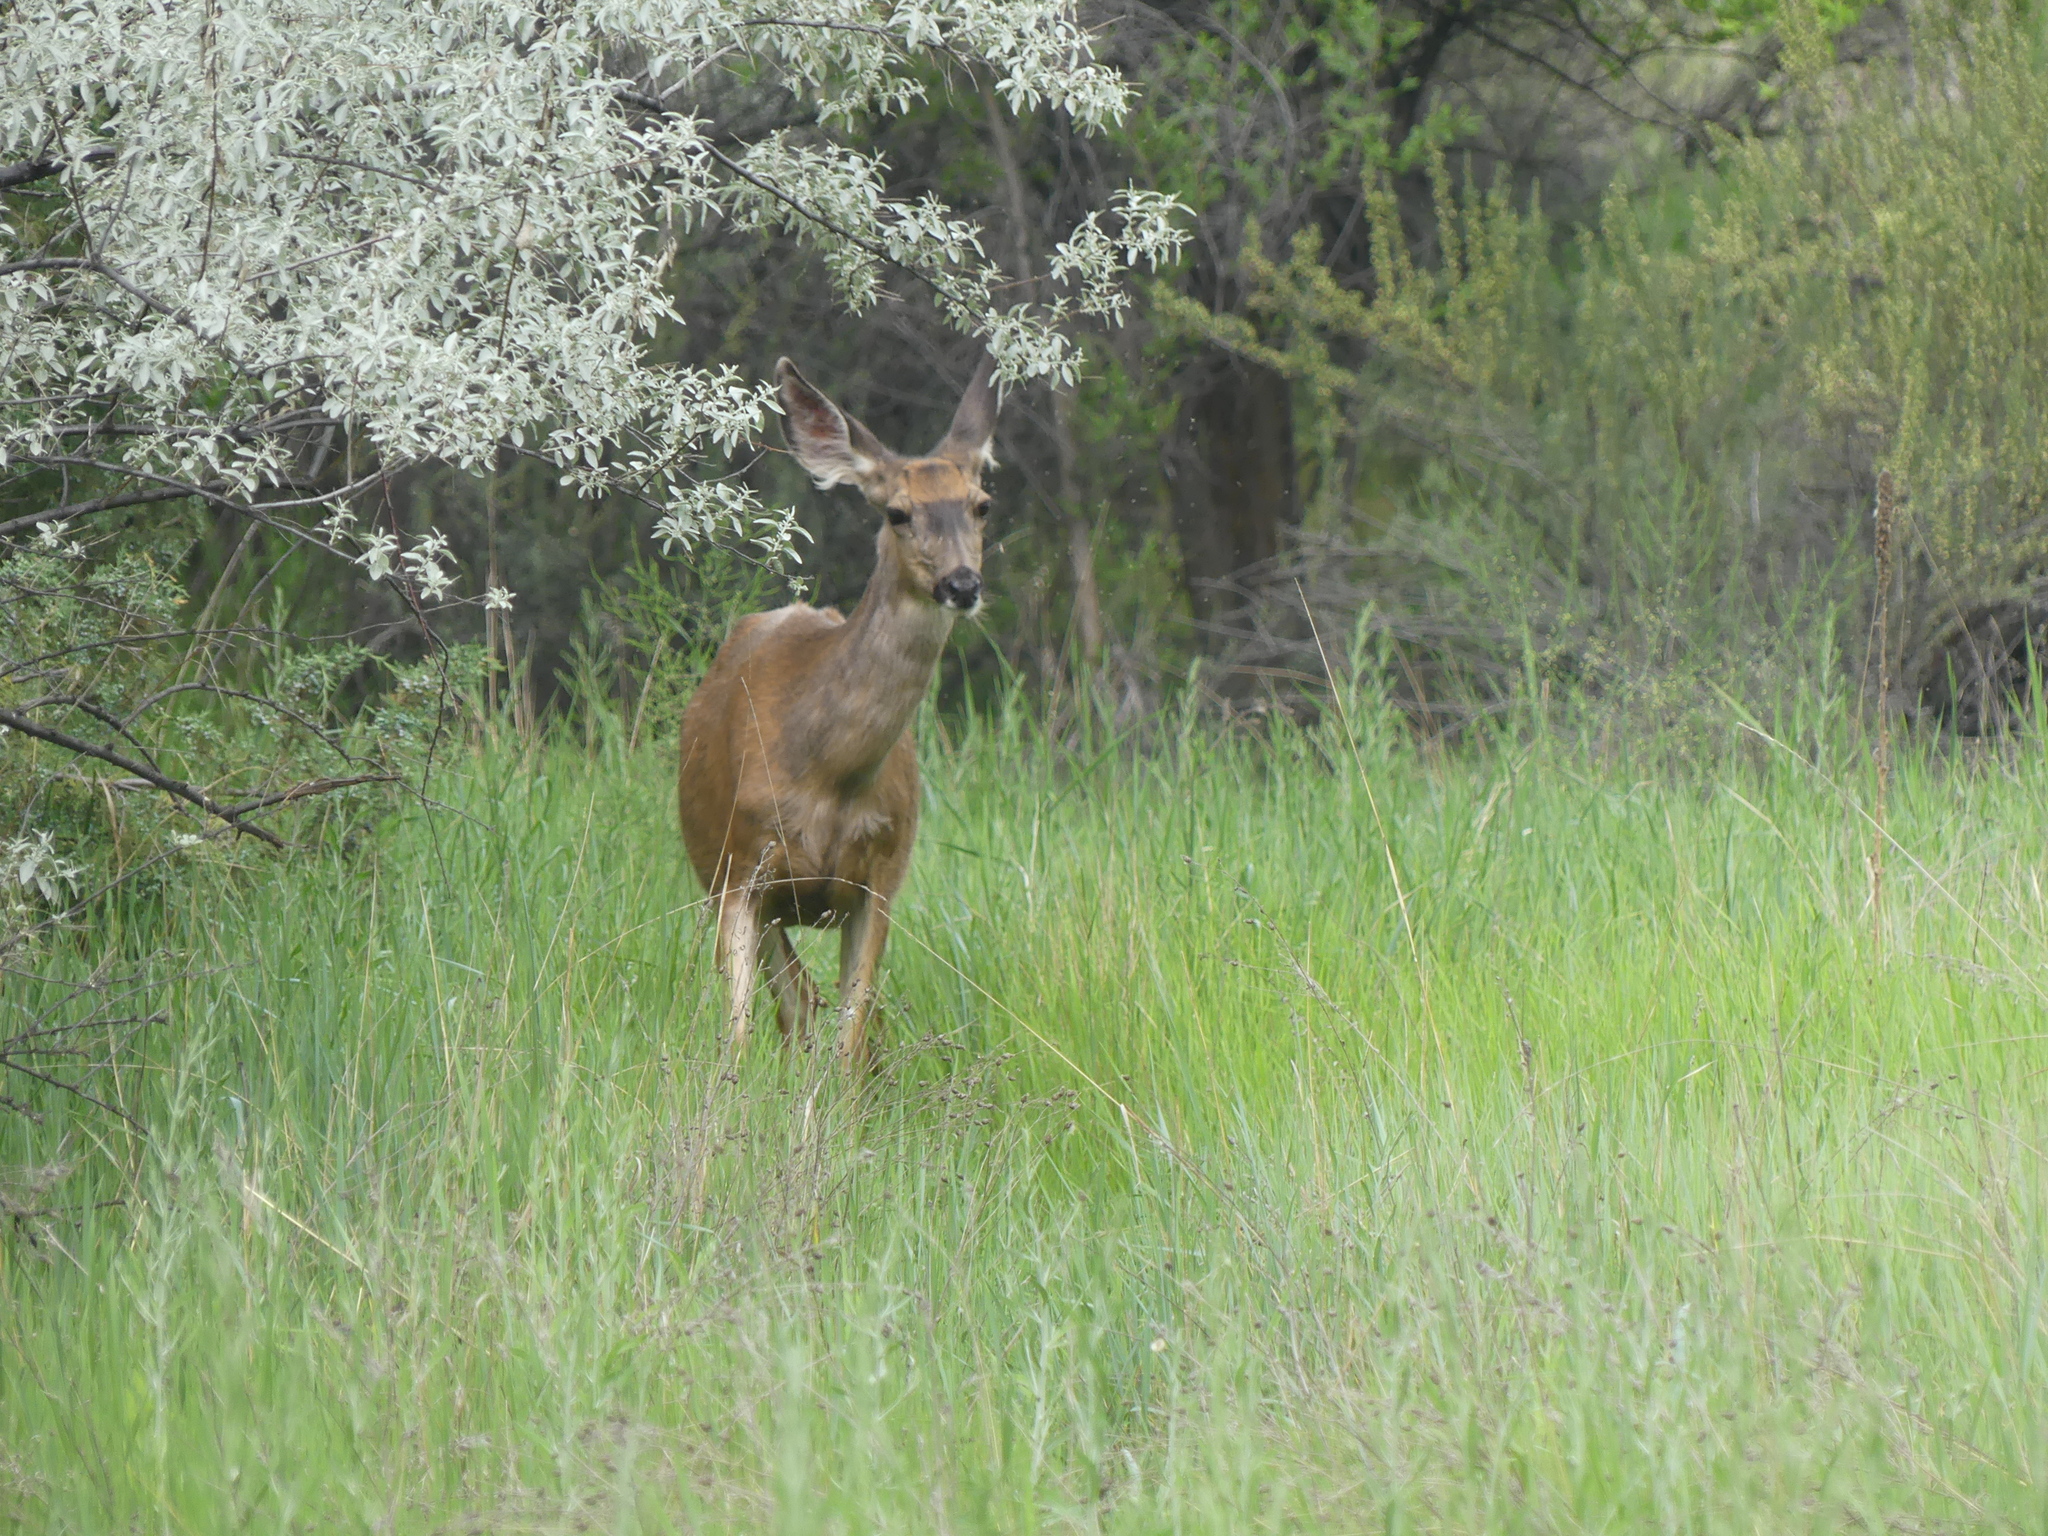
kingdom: Animalia
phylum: Chordata
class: Mammalia
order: Artiodactyla
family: Cervidae
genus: Odocoileus
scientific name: Odocoileus hemionus
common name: Mule deer
